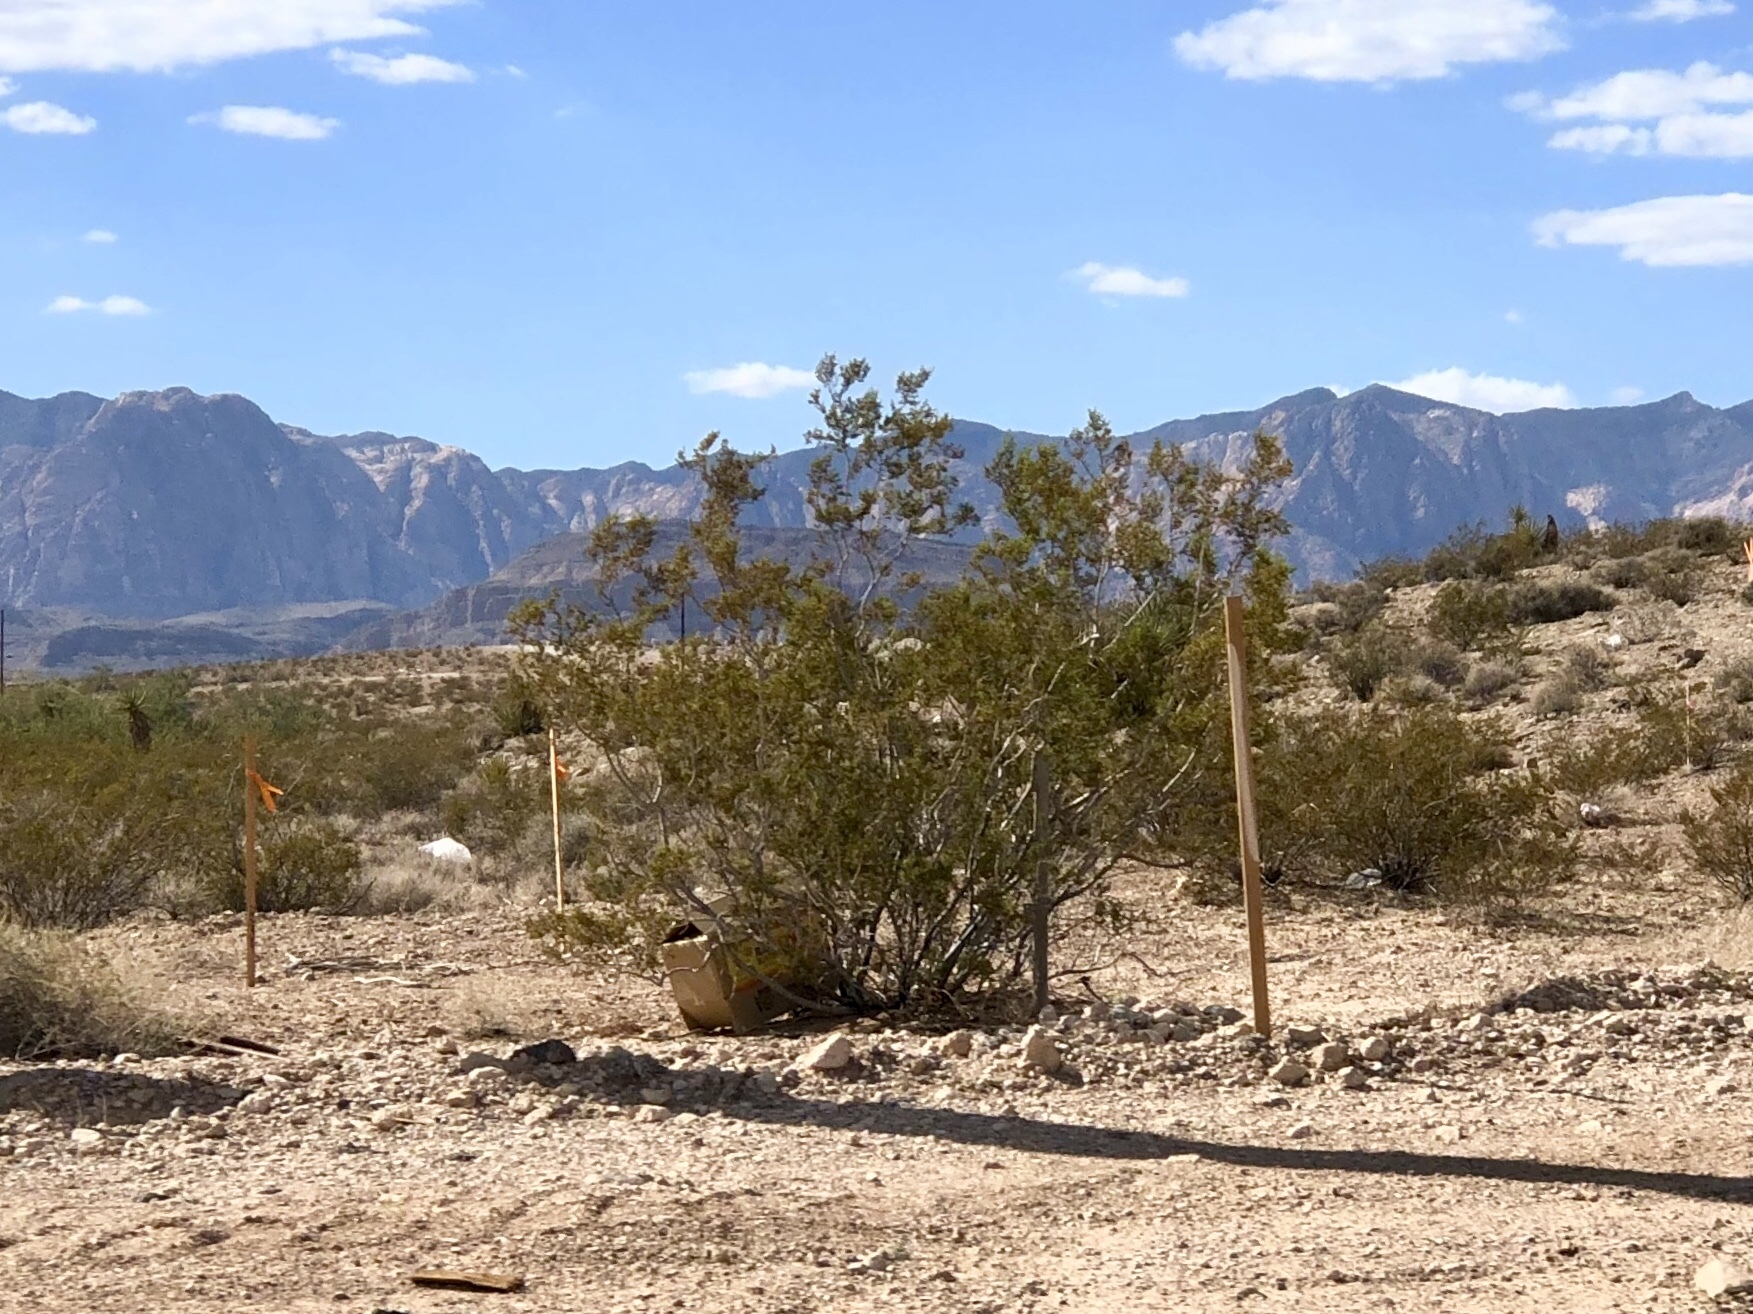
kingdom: Plantae
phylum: Tracheophyta
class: Magnoliopsida
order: Zygophyllales
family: Zygophyllaceae
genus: Larrea
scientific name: Larrea tridentata
